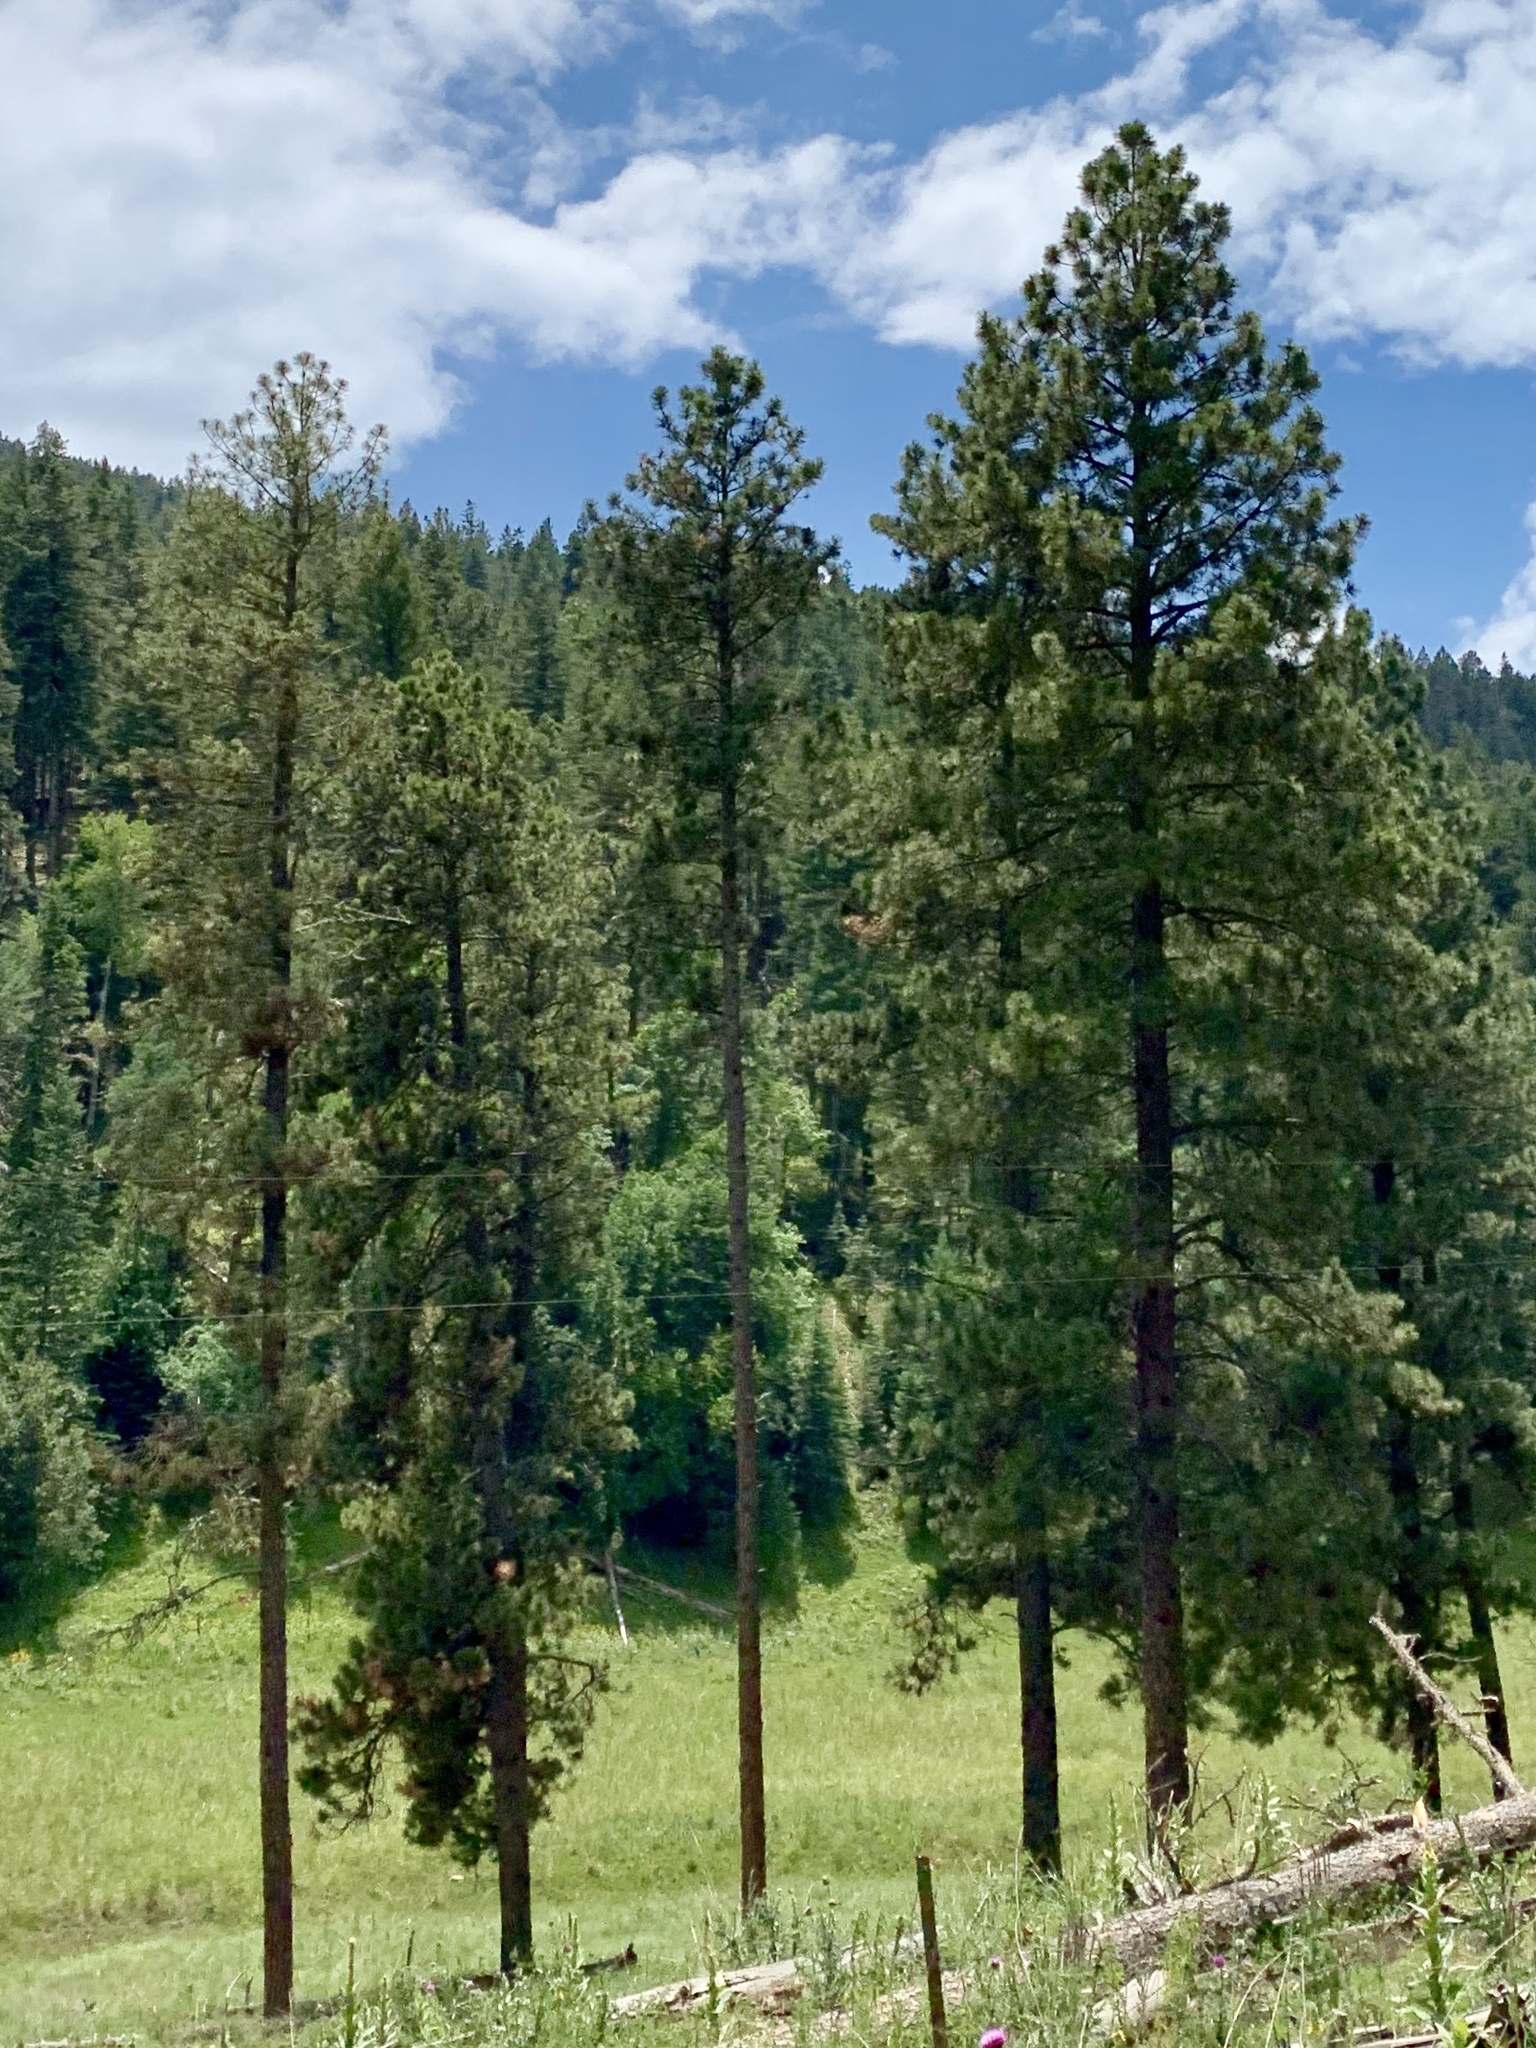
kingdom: Plantae
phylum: Tracheophyta
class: Pinopsida
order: Pinales
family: Pinaceae
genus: Pinus
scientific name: Pinus ponderosa
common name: Western yellow-pine
